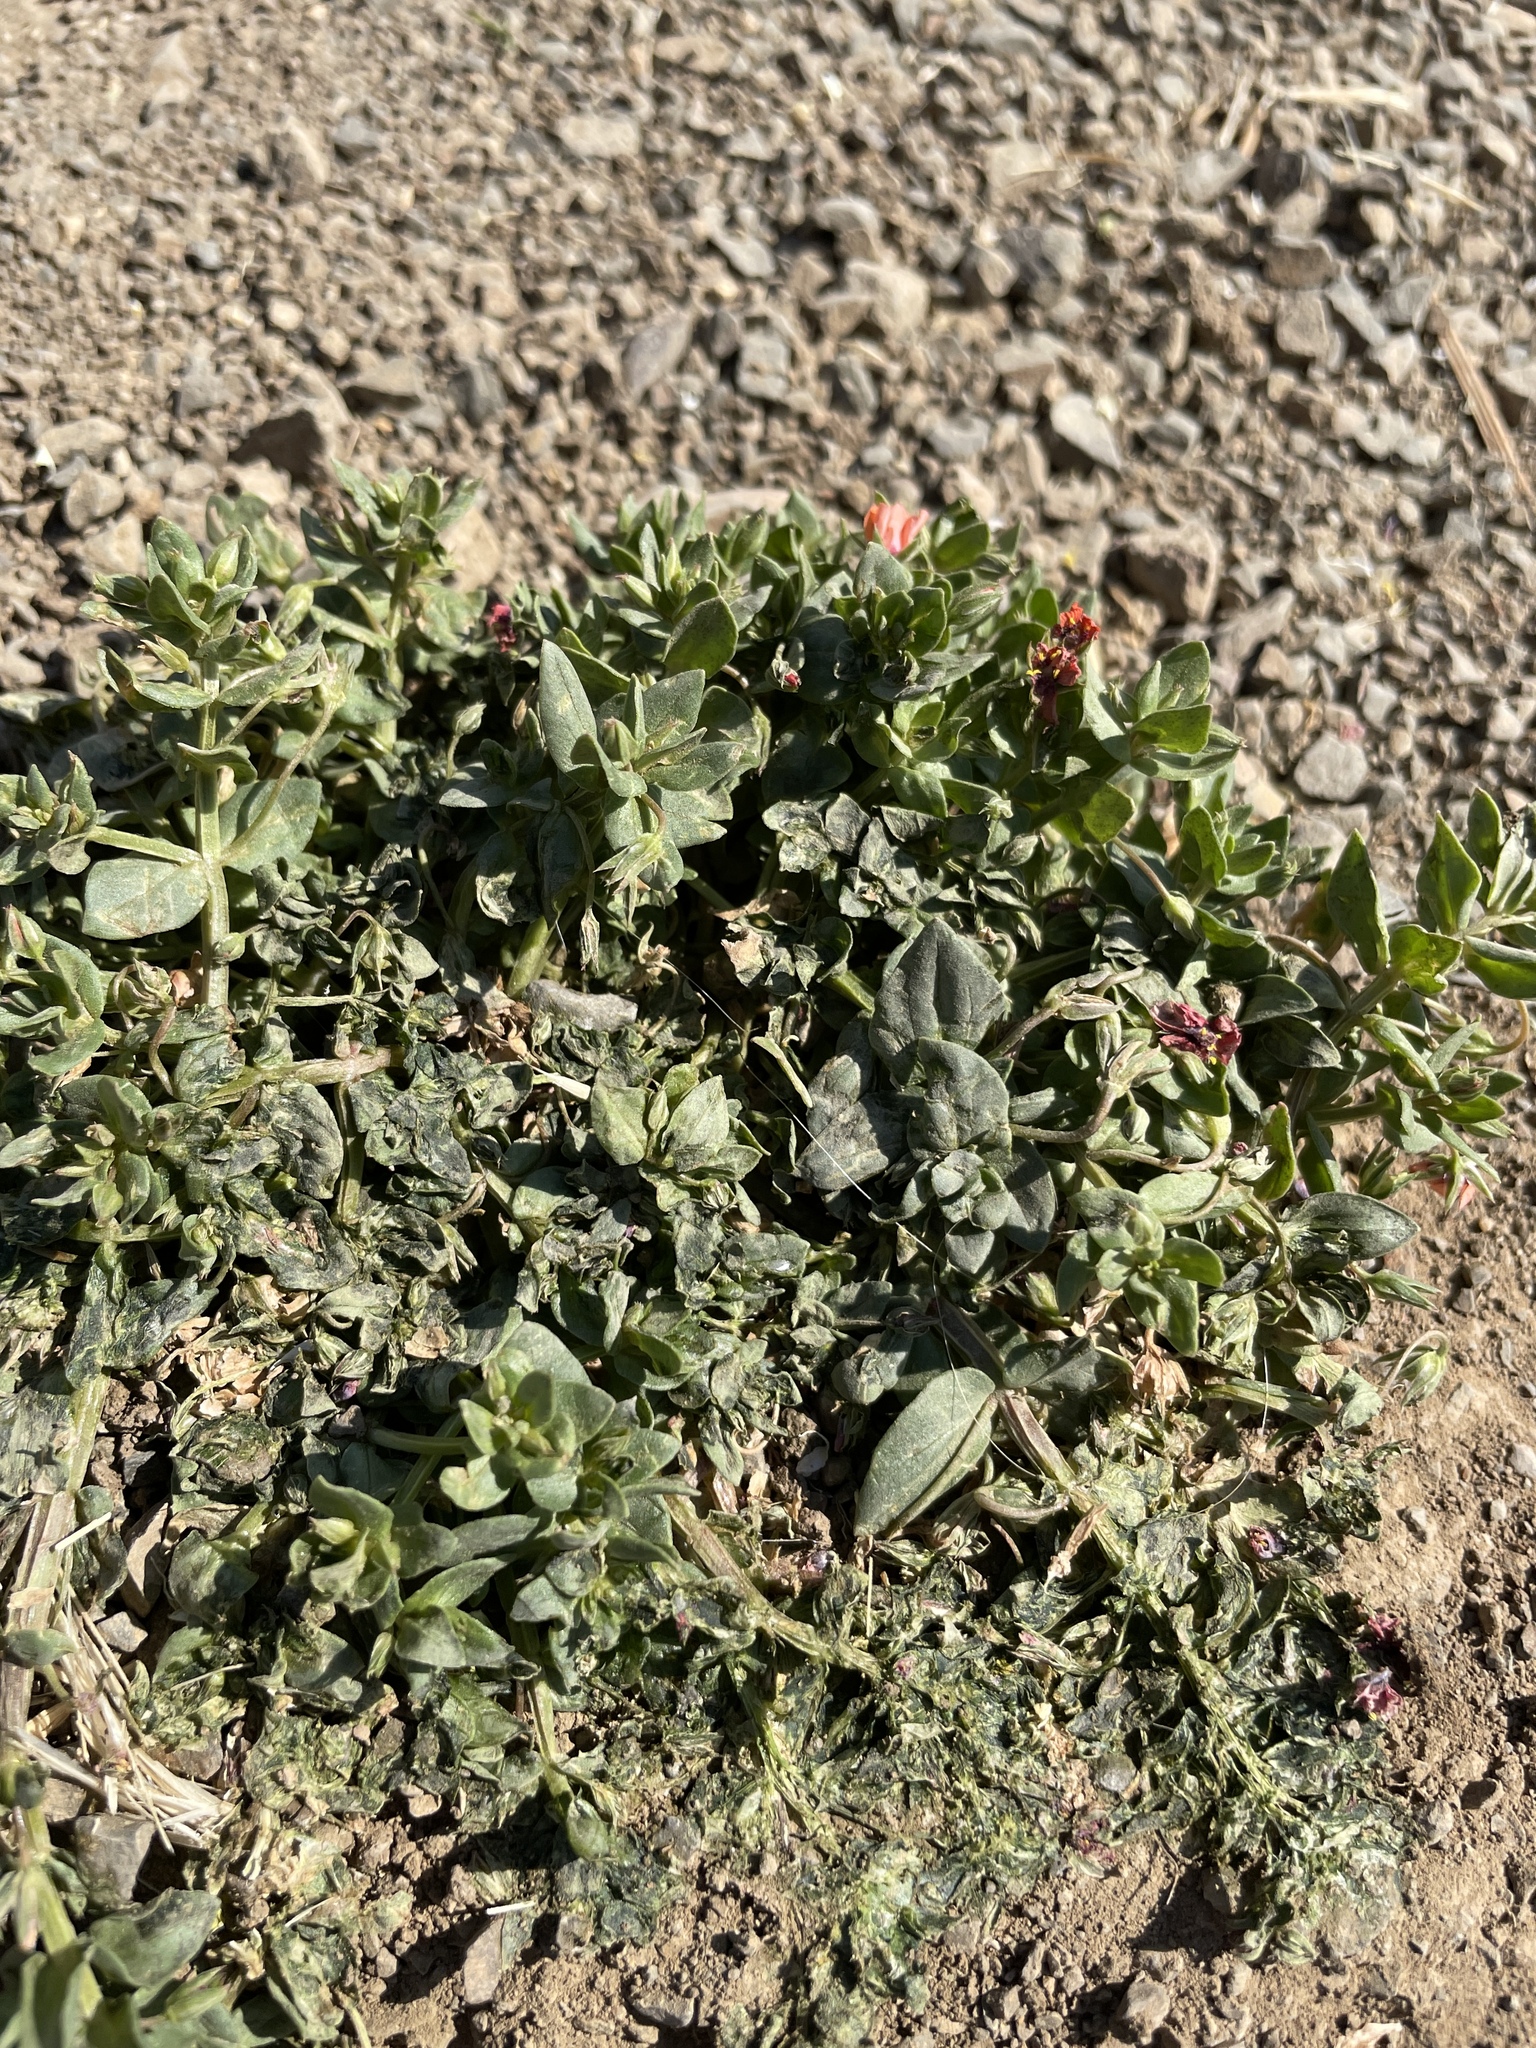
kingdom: Plantae
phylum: Tracheophyta
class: Magnoliopsida
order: Ericales
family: Primulaceae
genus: Lysimachia
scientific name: Lysimachia arvensis
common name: Scarlet pimpernel
